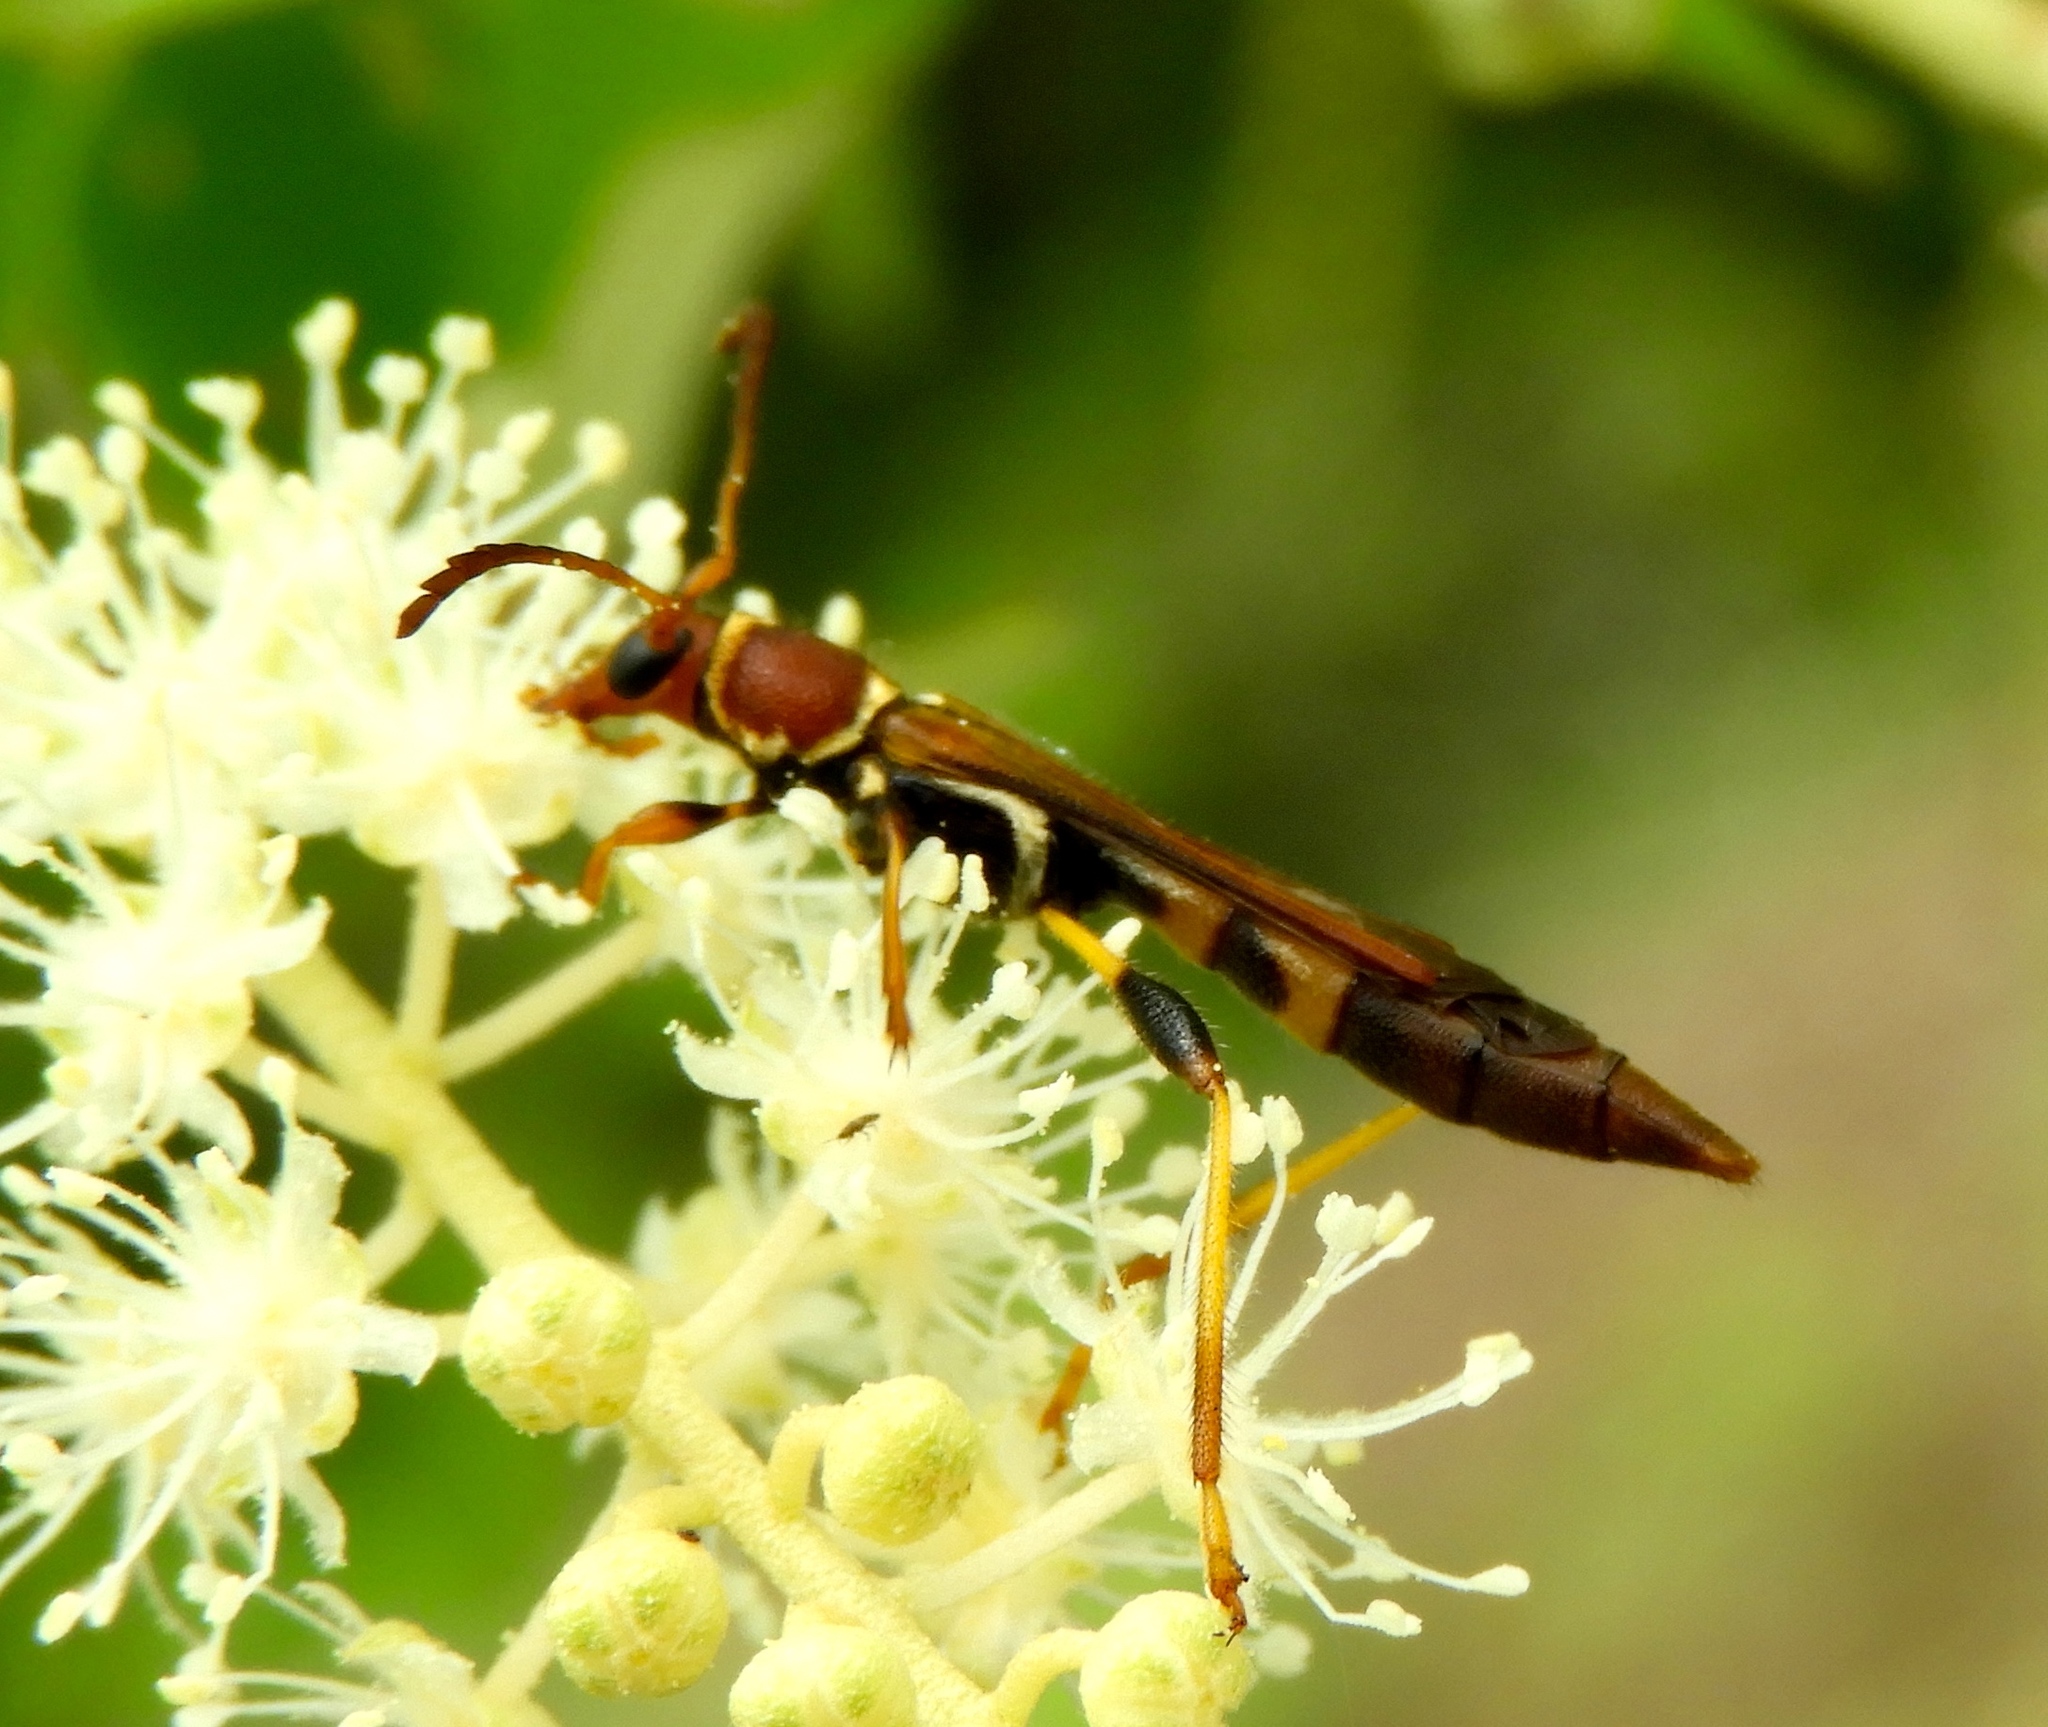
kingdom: Animalia
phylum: Arthropoda
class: Insecta
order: Coleoptera
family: Cerambycidae
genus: Odontocera
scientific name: Odontocera aurocincta
